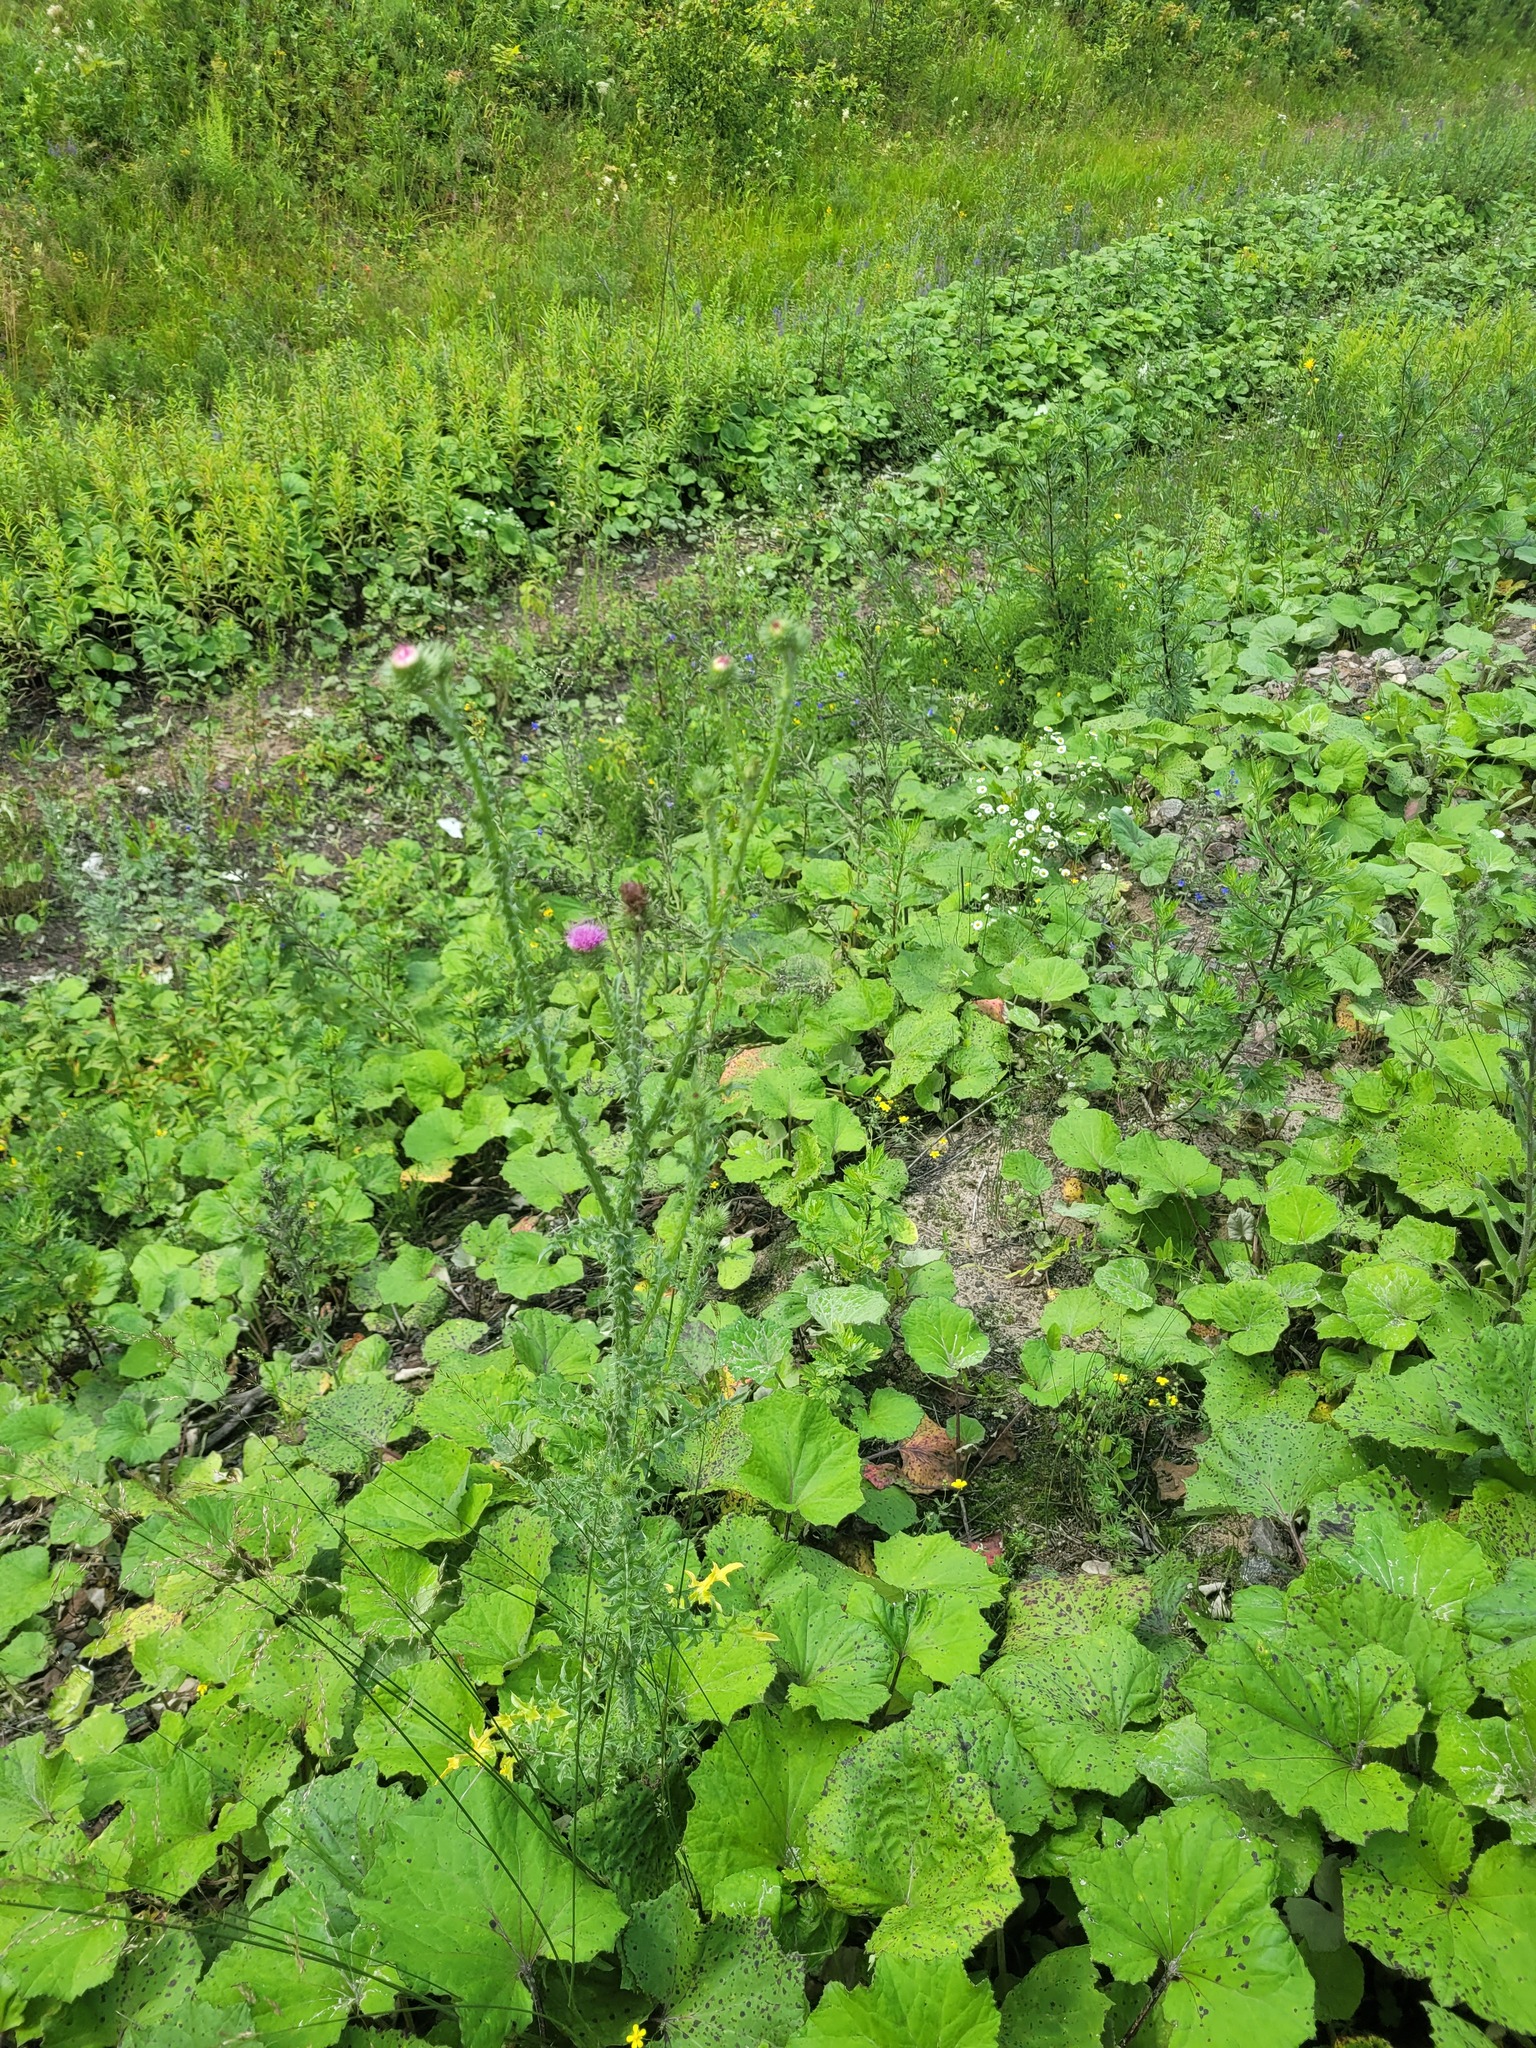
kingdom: Plantae
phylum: Tracheophyta
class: Magnoliopsida
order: Asterales
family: Asteraceae
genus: Carduus
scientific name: Carduus acanthoides
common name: Plumeless thistle
